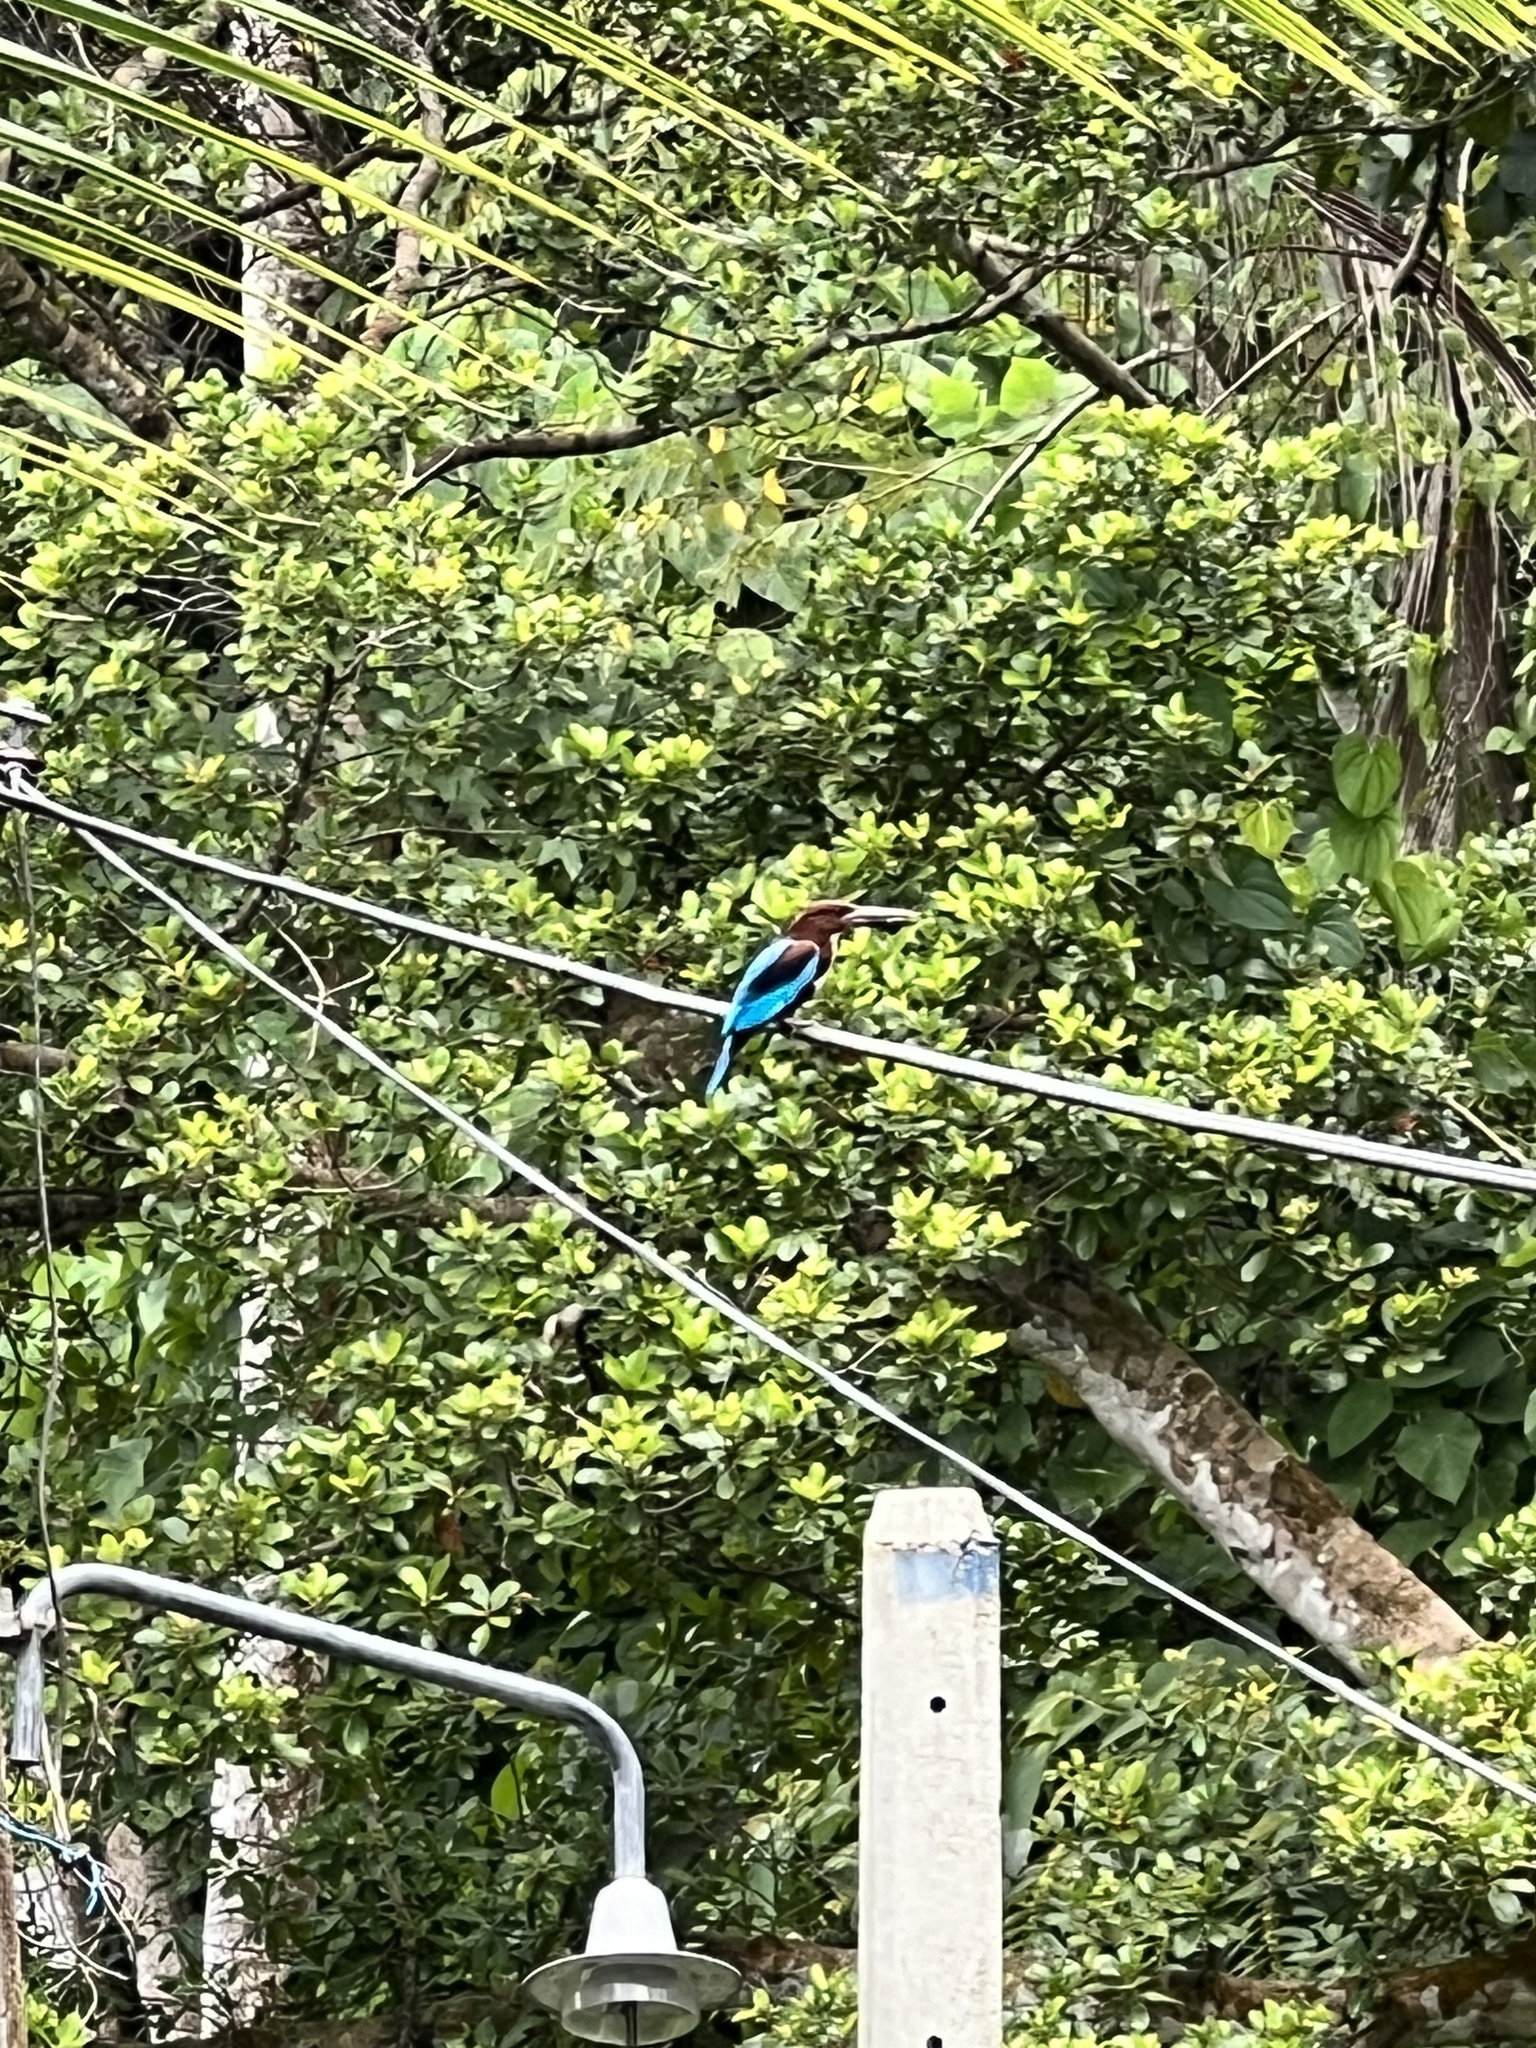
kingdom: Animalia
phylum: Chordata
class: Aves
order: Coraciiformes
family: Alcedinidae
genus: Halcyon
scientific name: Halcyon smyrnensis
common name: White-throated kingfisher
